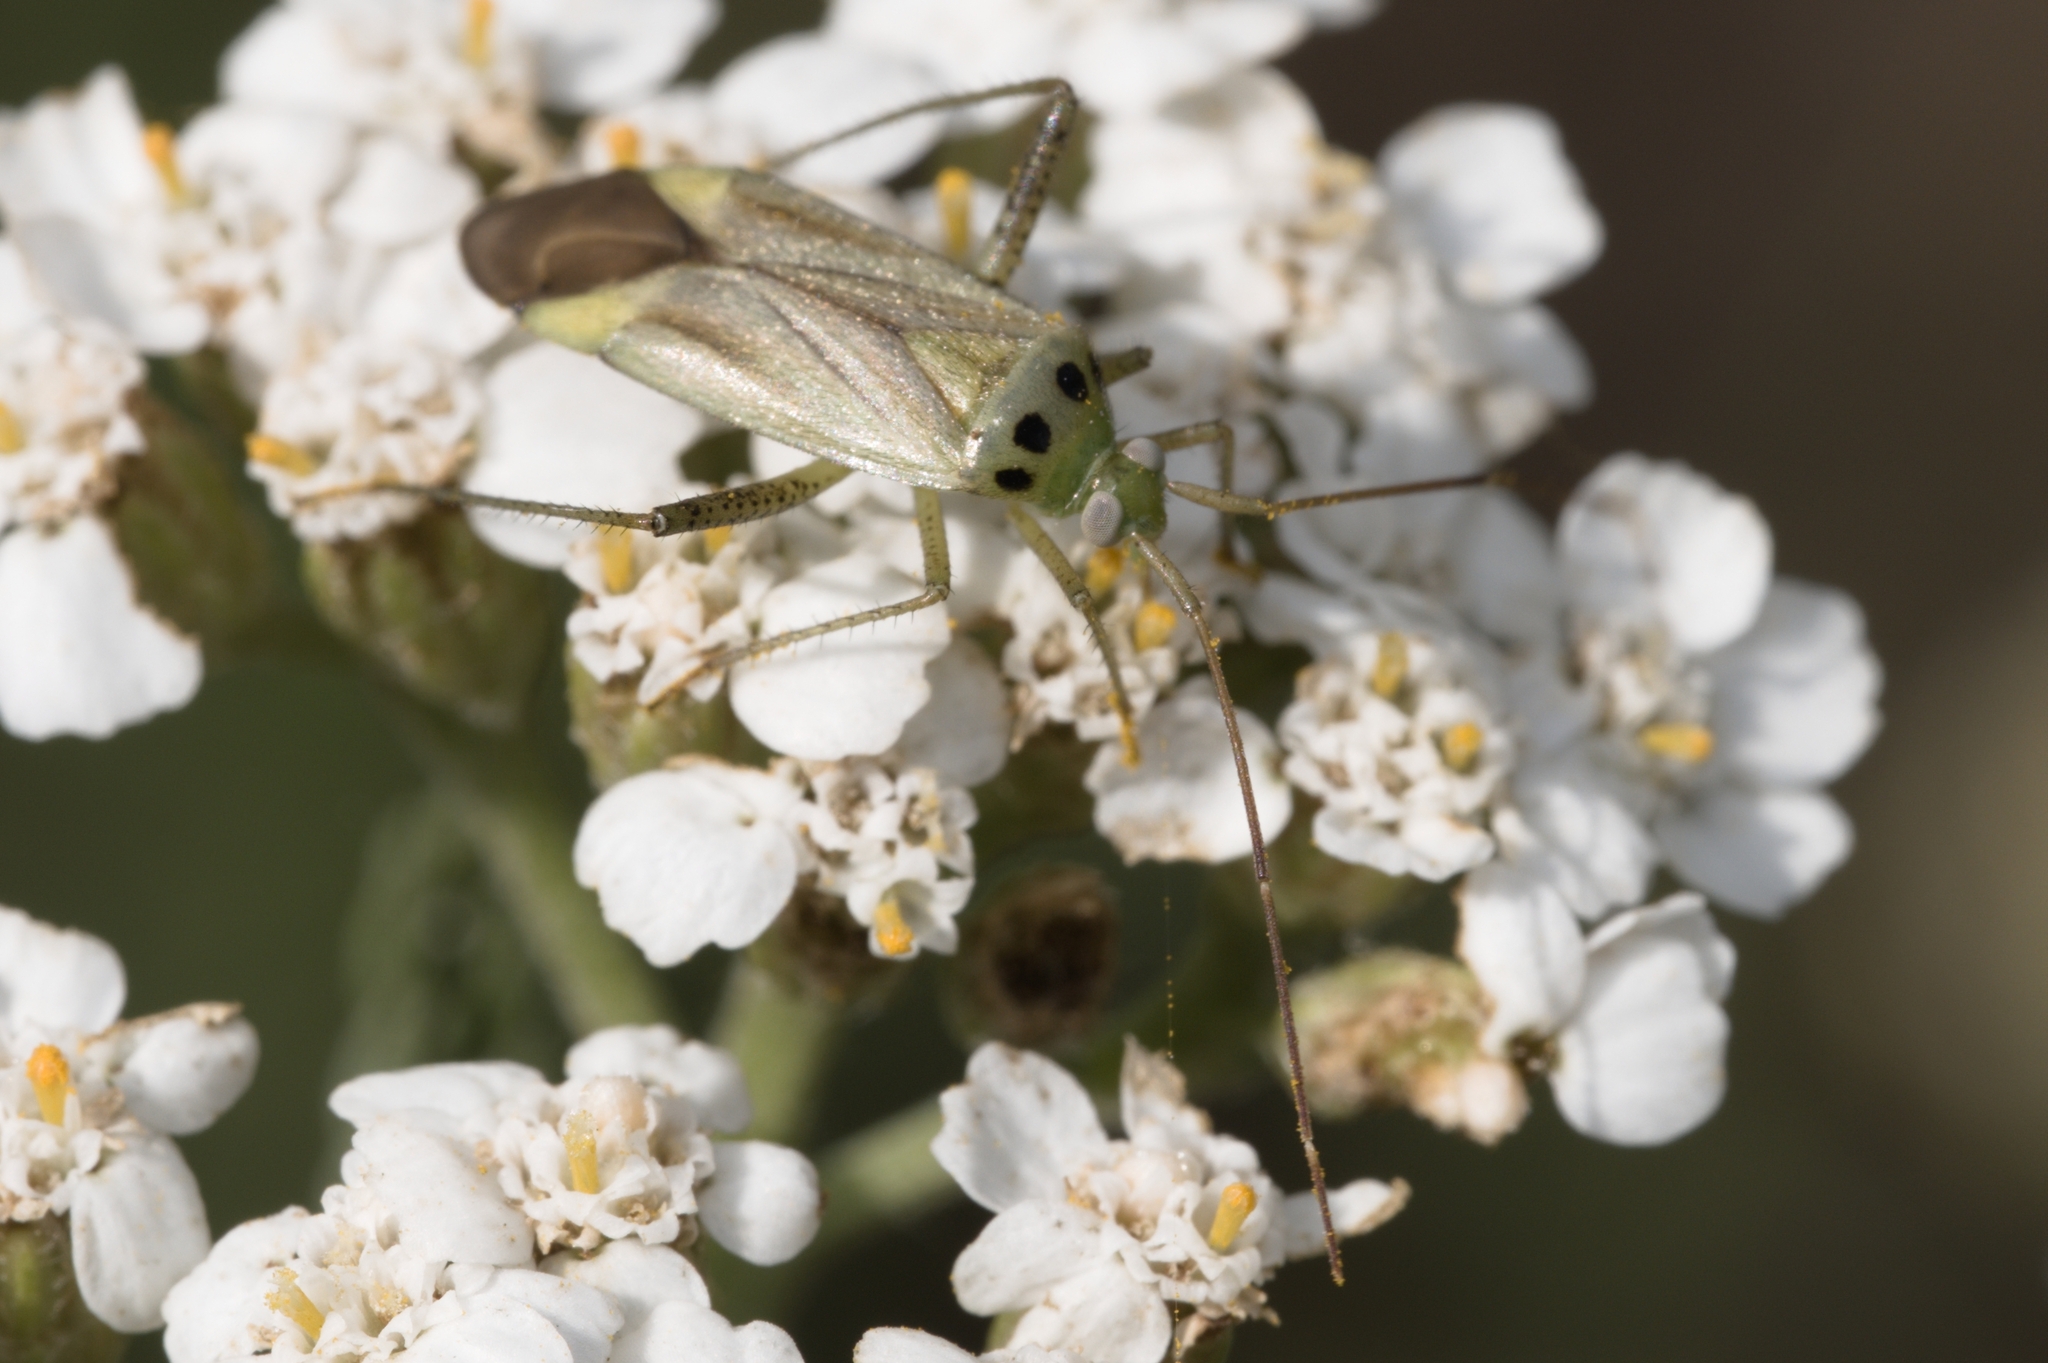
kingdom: Animalia
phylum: Arthropoda
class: Insecta
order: Hemiptera
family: Miridae
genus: Adelphocoris
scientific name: Adelphocoris quadripunctatus
